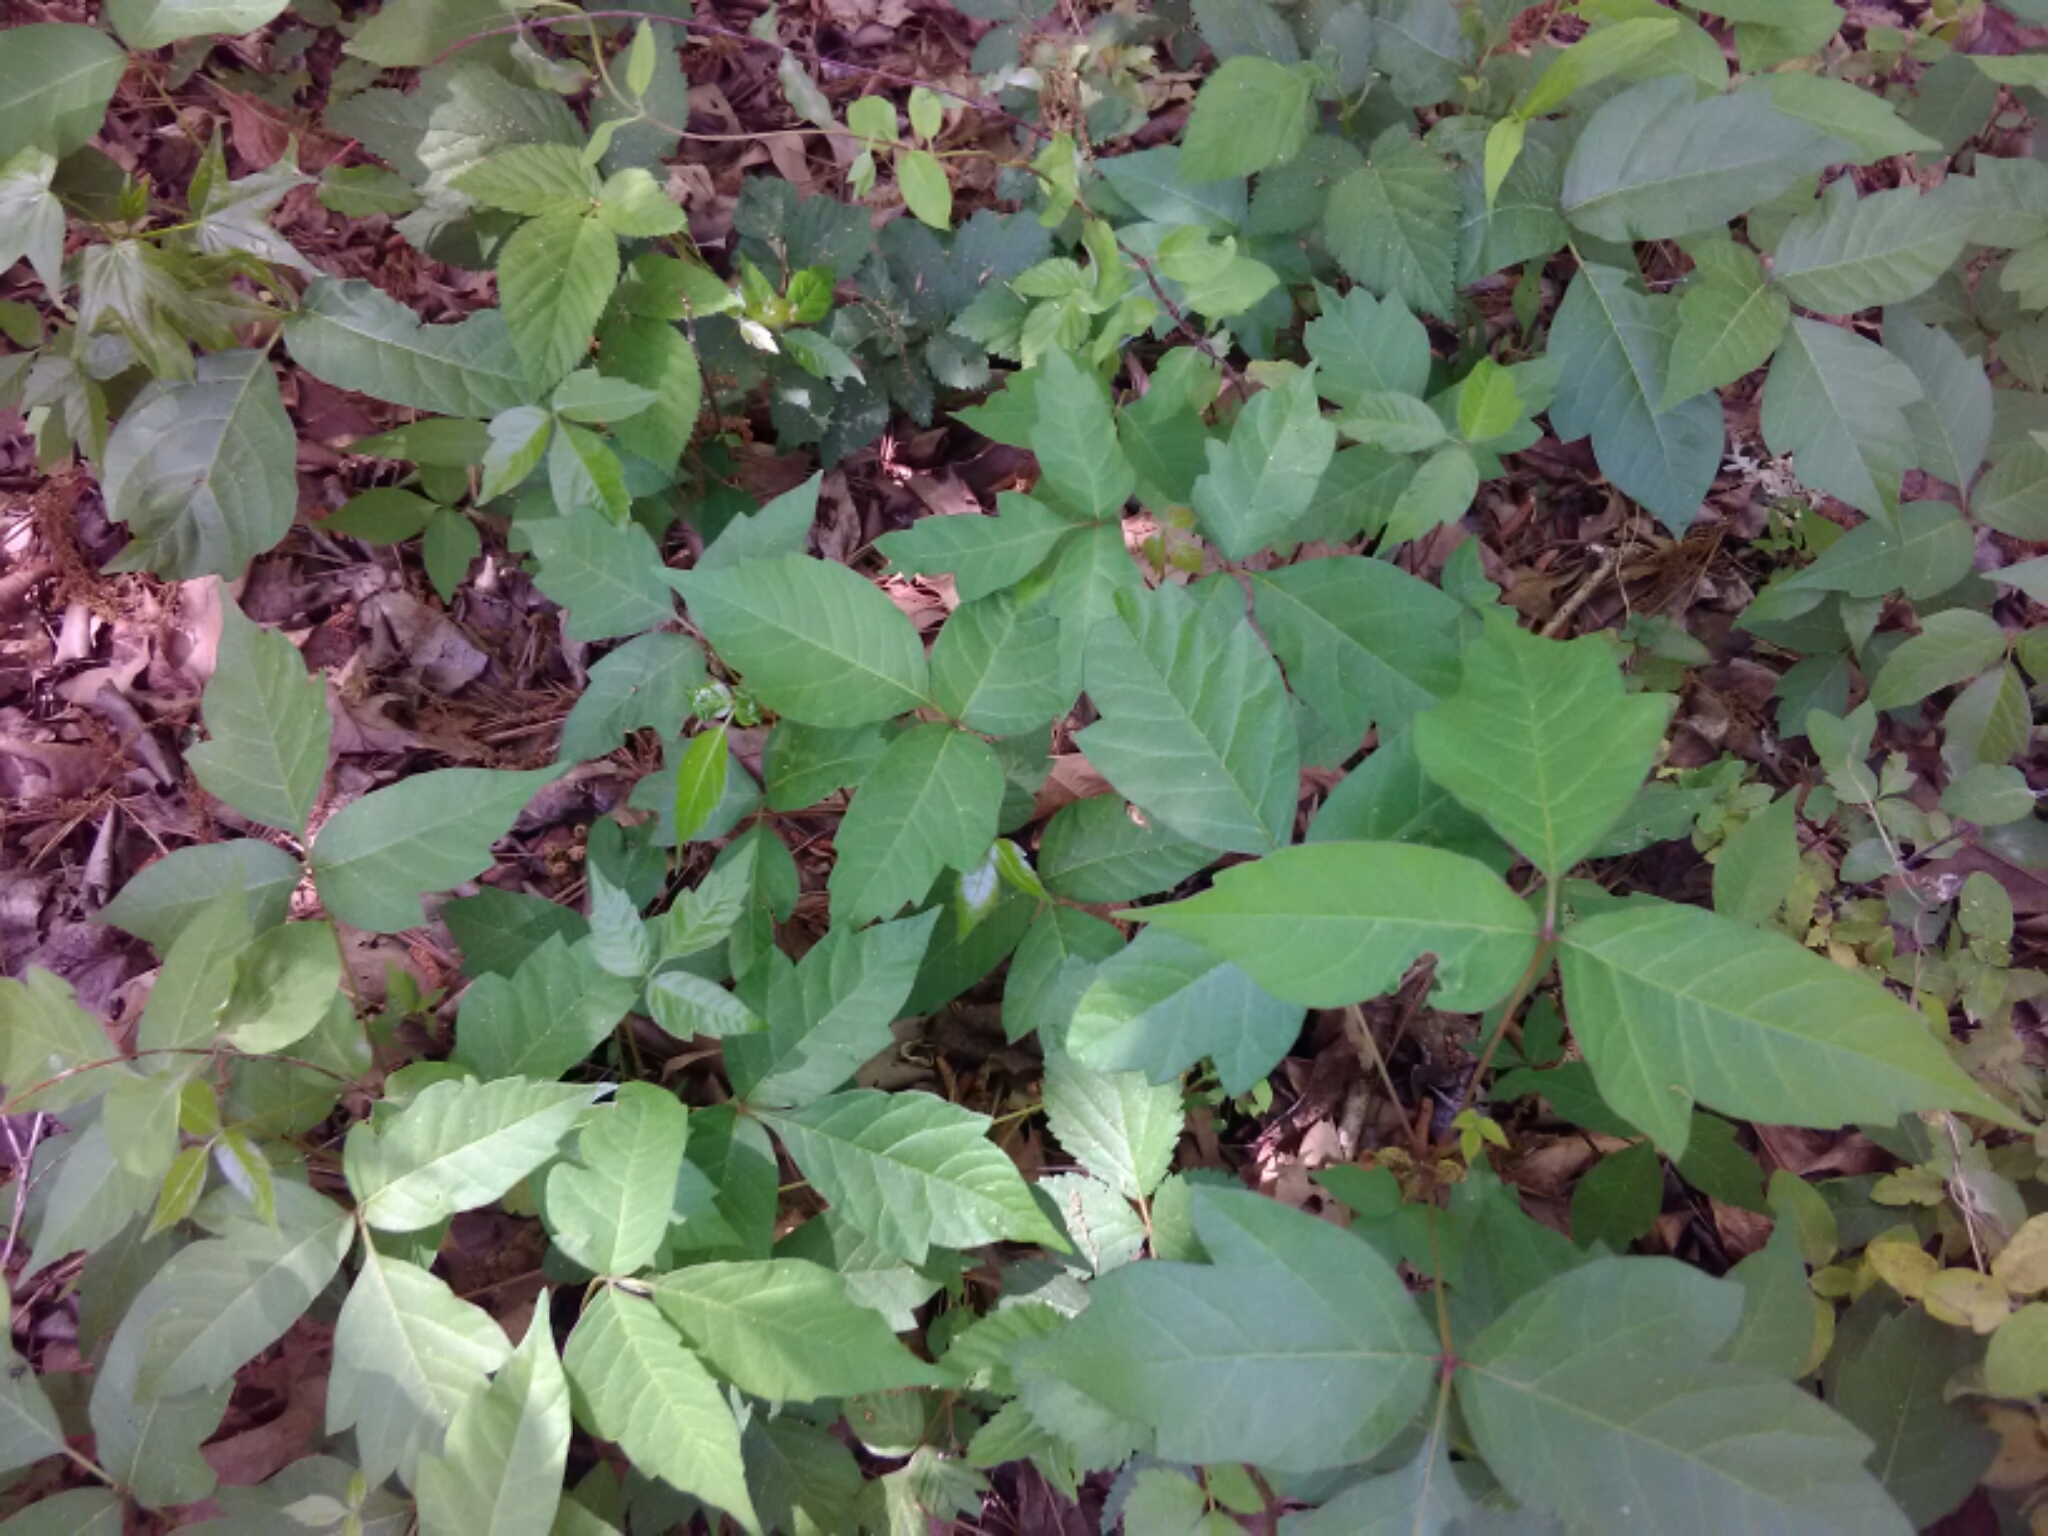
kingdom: Plantae
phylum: Tracheophyta
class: Magnoliopsida
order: Sapindales
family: Anacardiaceae
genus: Toxicodendron
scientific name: Toxicodendron radicans
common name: Poison ivy
